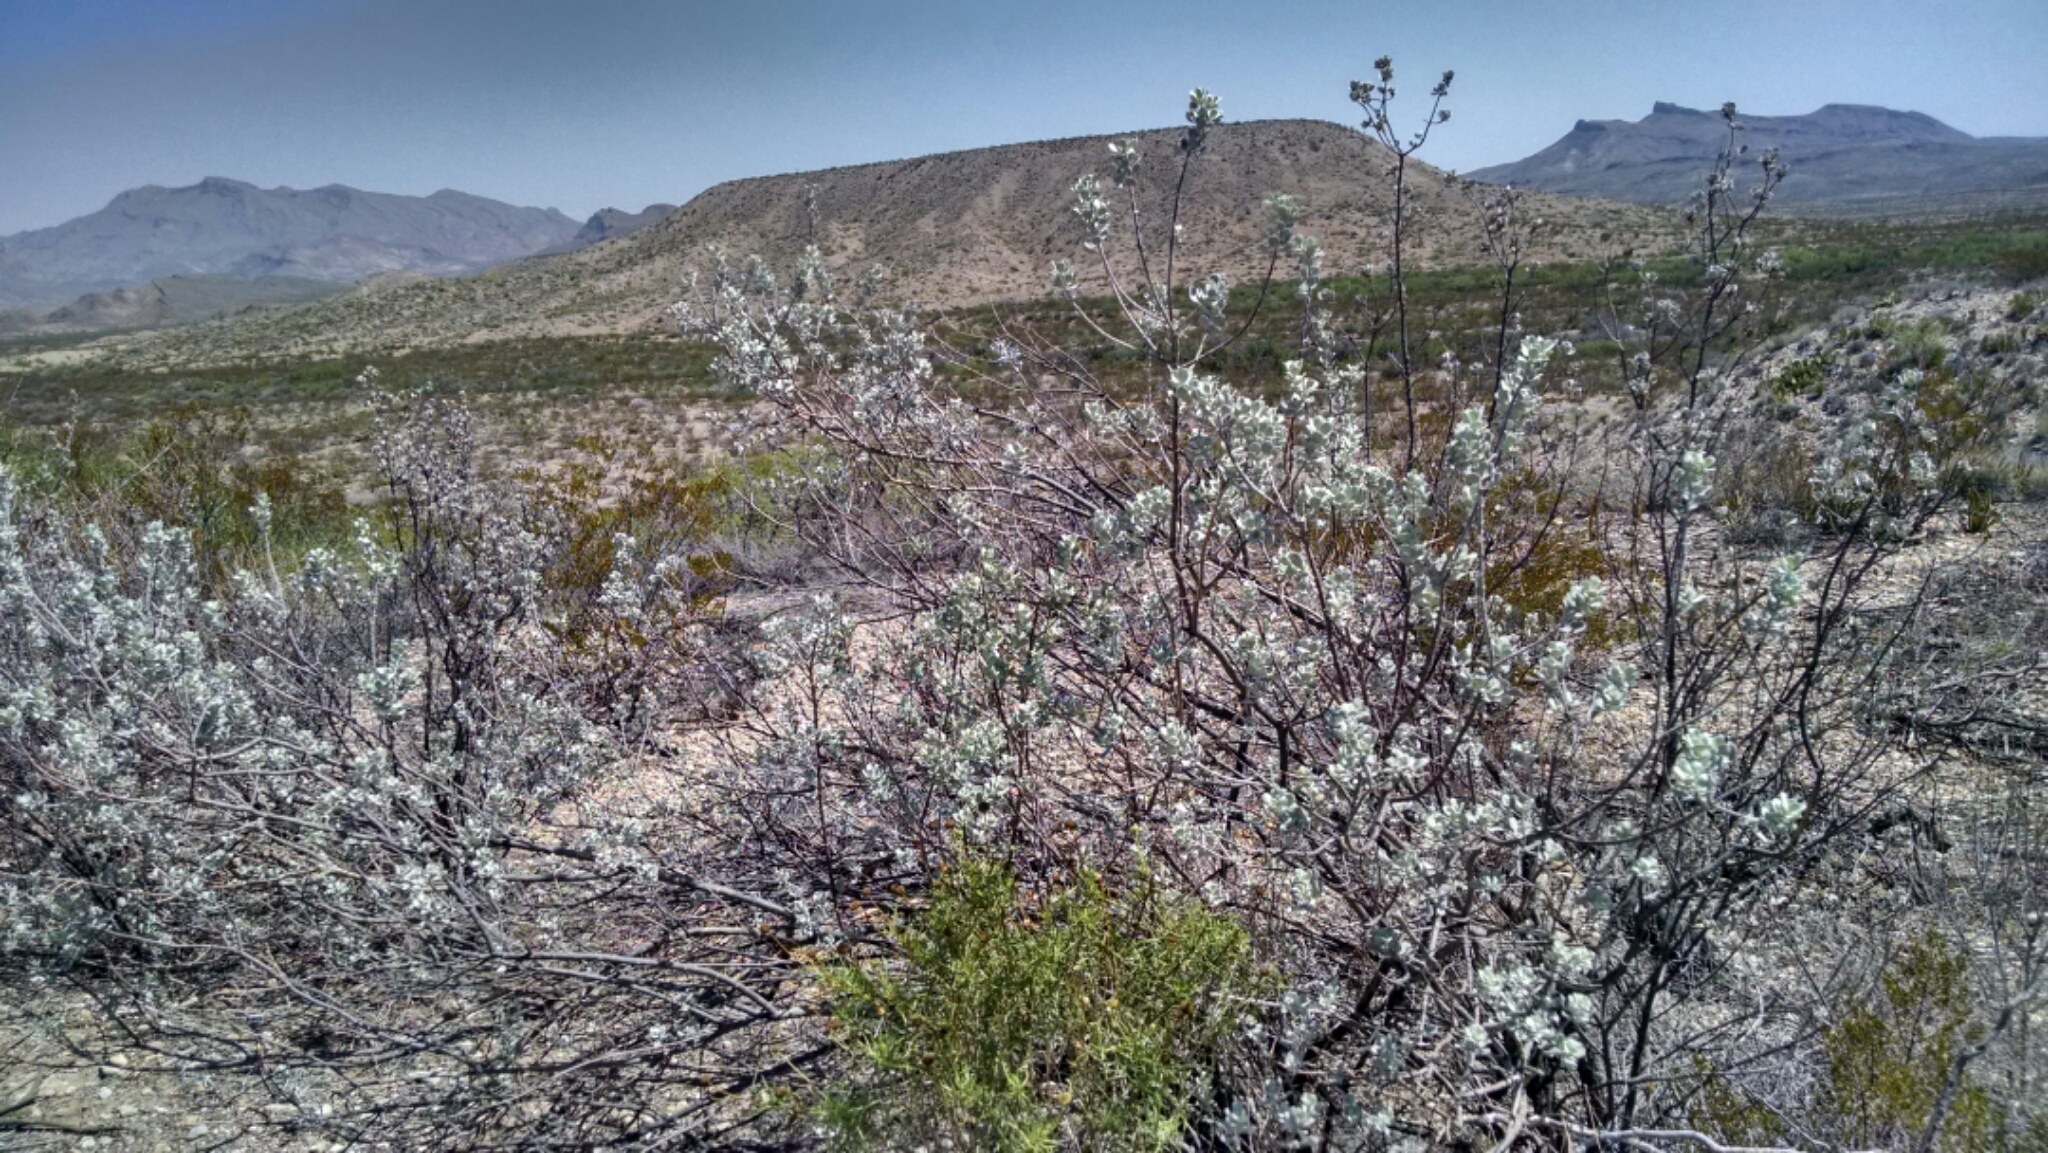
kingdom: Plantae
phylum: Tracheophyta
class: Magnoliopsida
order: Lamiales
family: Scrophulariaceae
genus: Leucophyllum
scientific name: Leucophyllum frutescens
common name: Texas silverleaf
